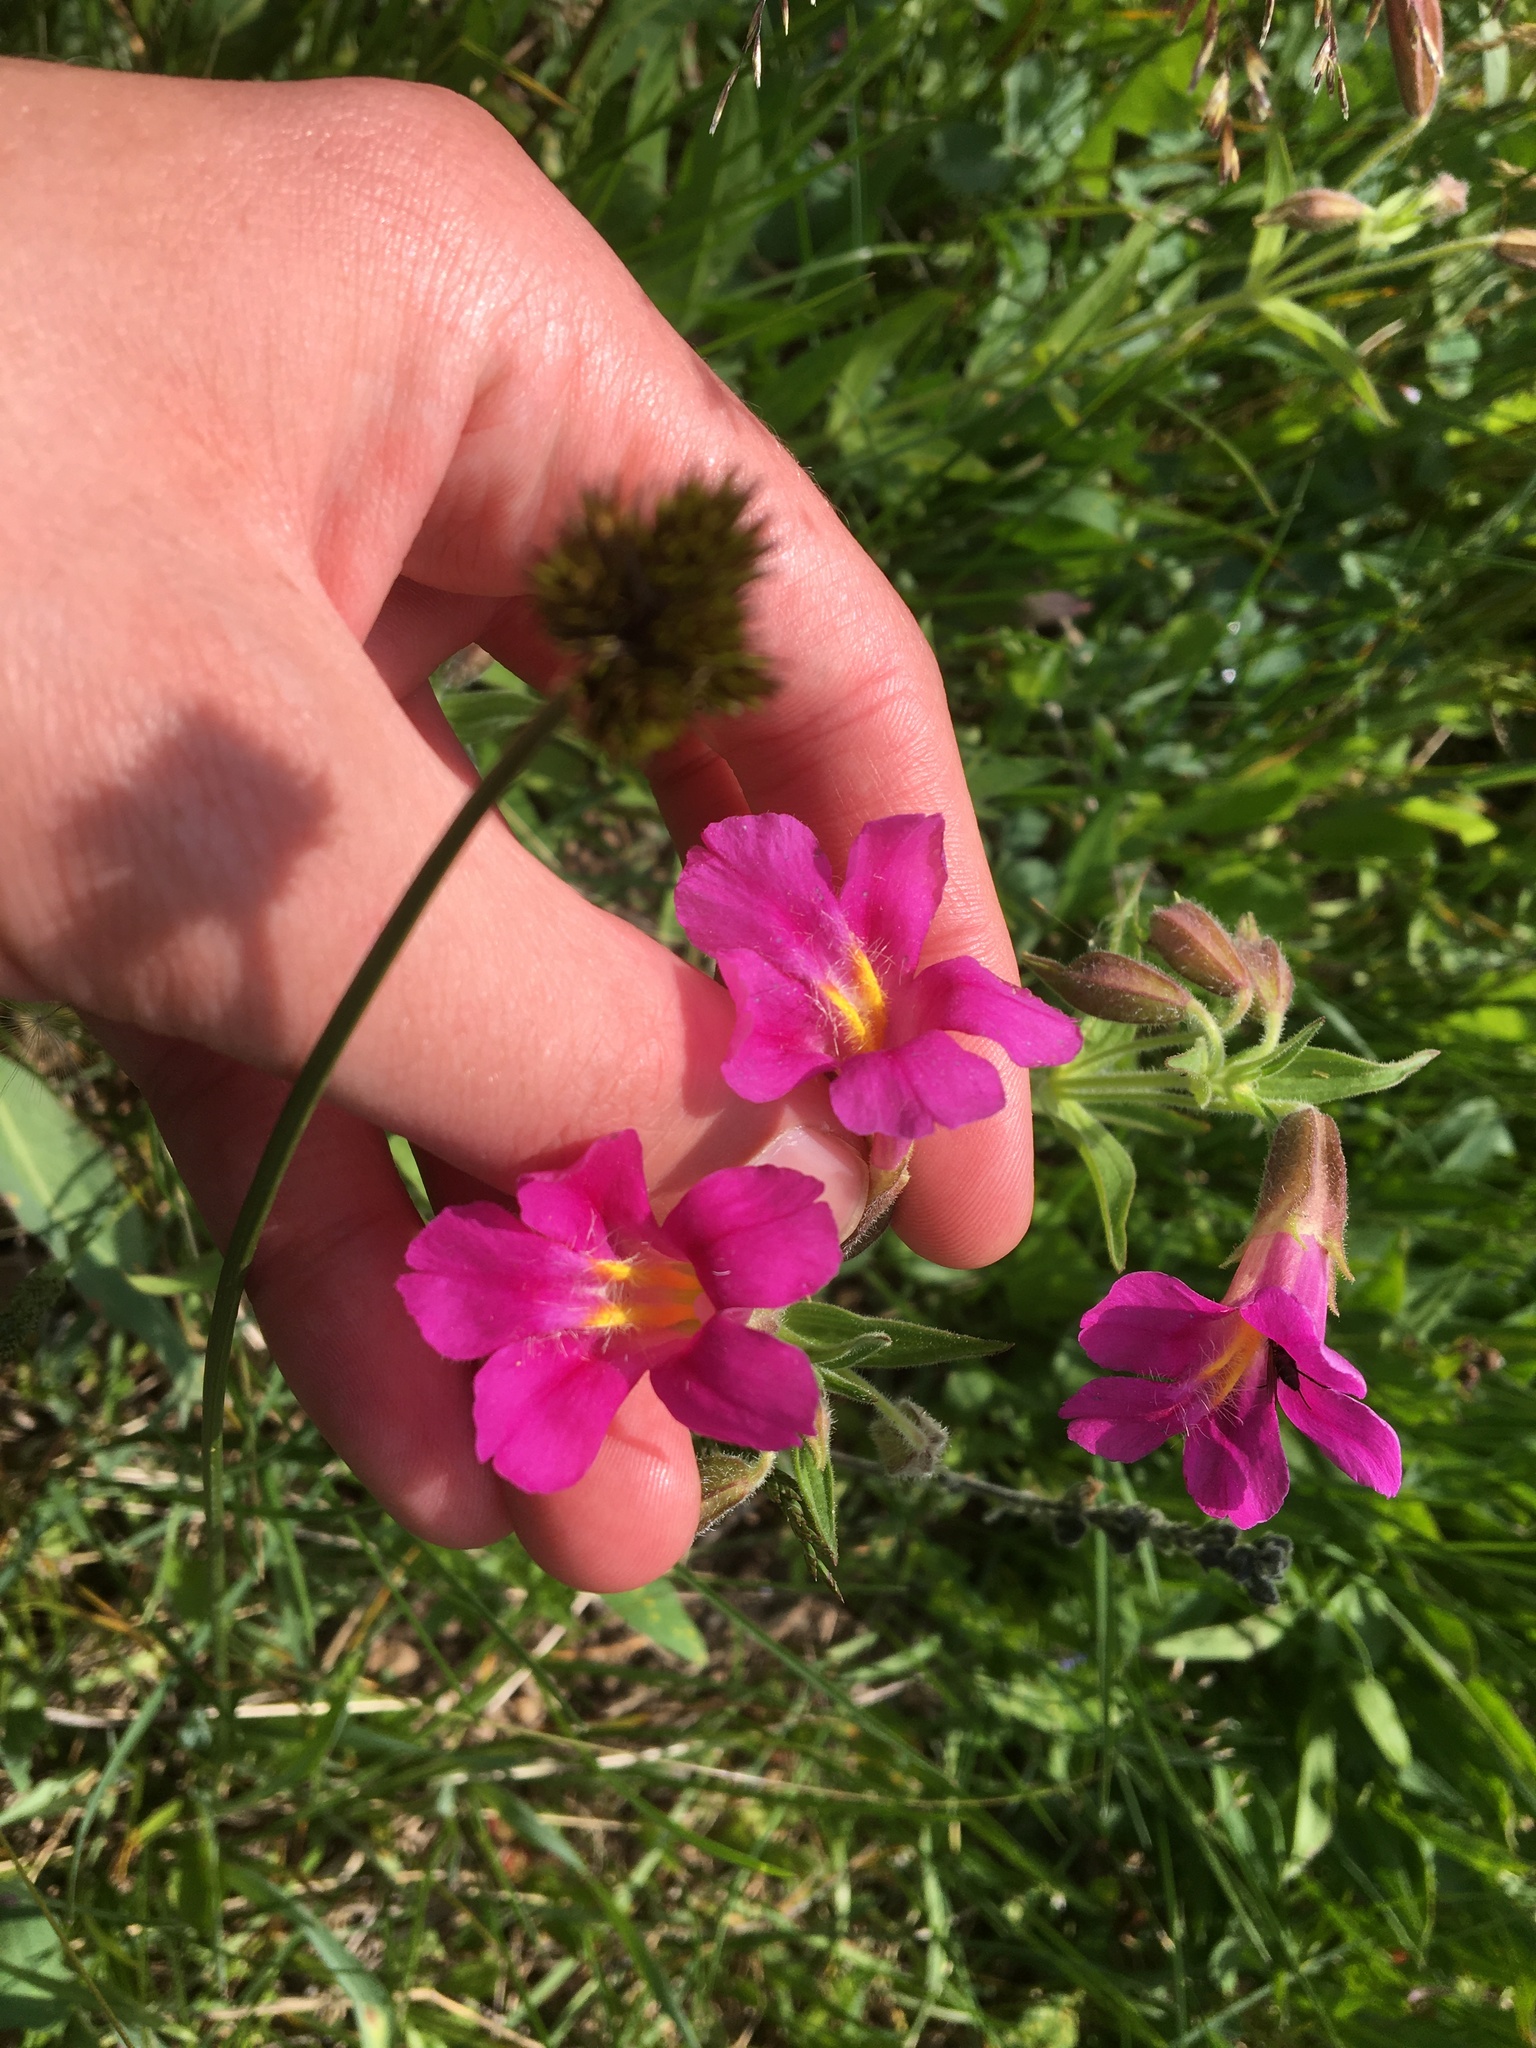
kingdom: Plantae
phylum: Tracheophyta
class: Magnoliopsida
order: Lamiales
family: Phrymaceae
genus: Erythranthe
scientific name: Erythranthe lewisii
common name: Lewis's monkey-flower
